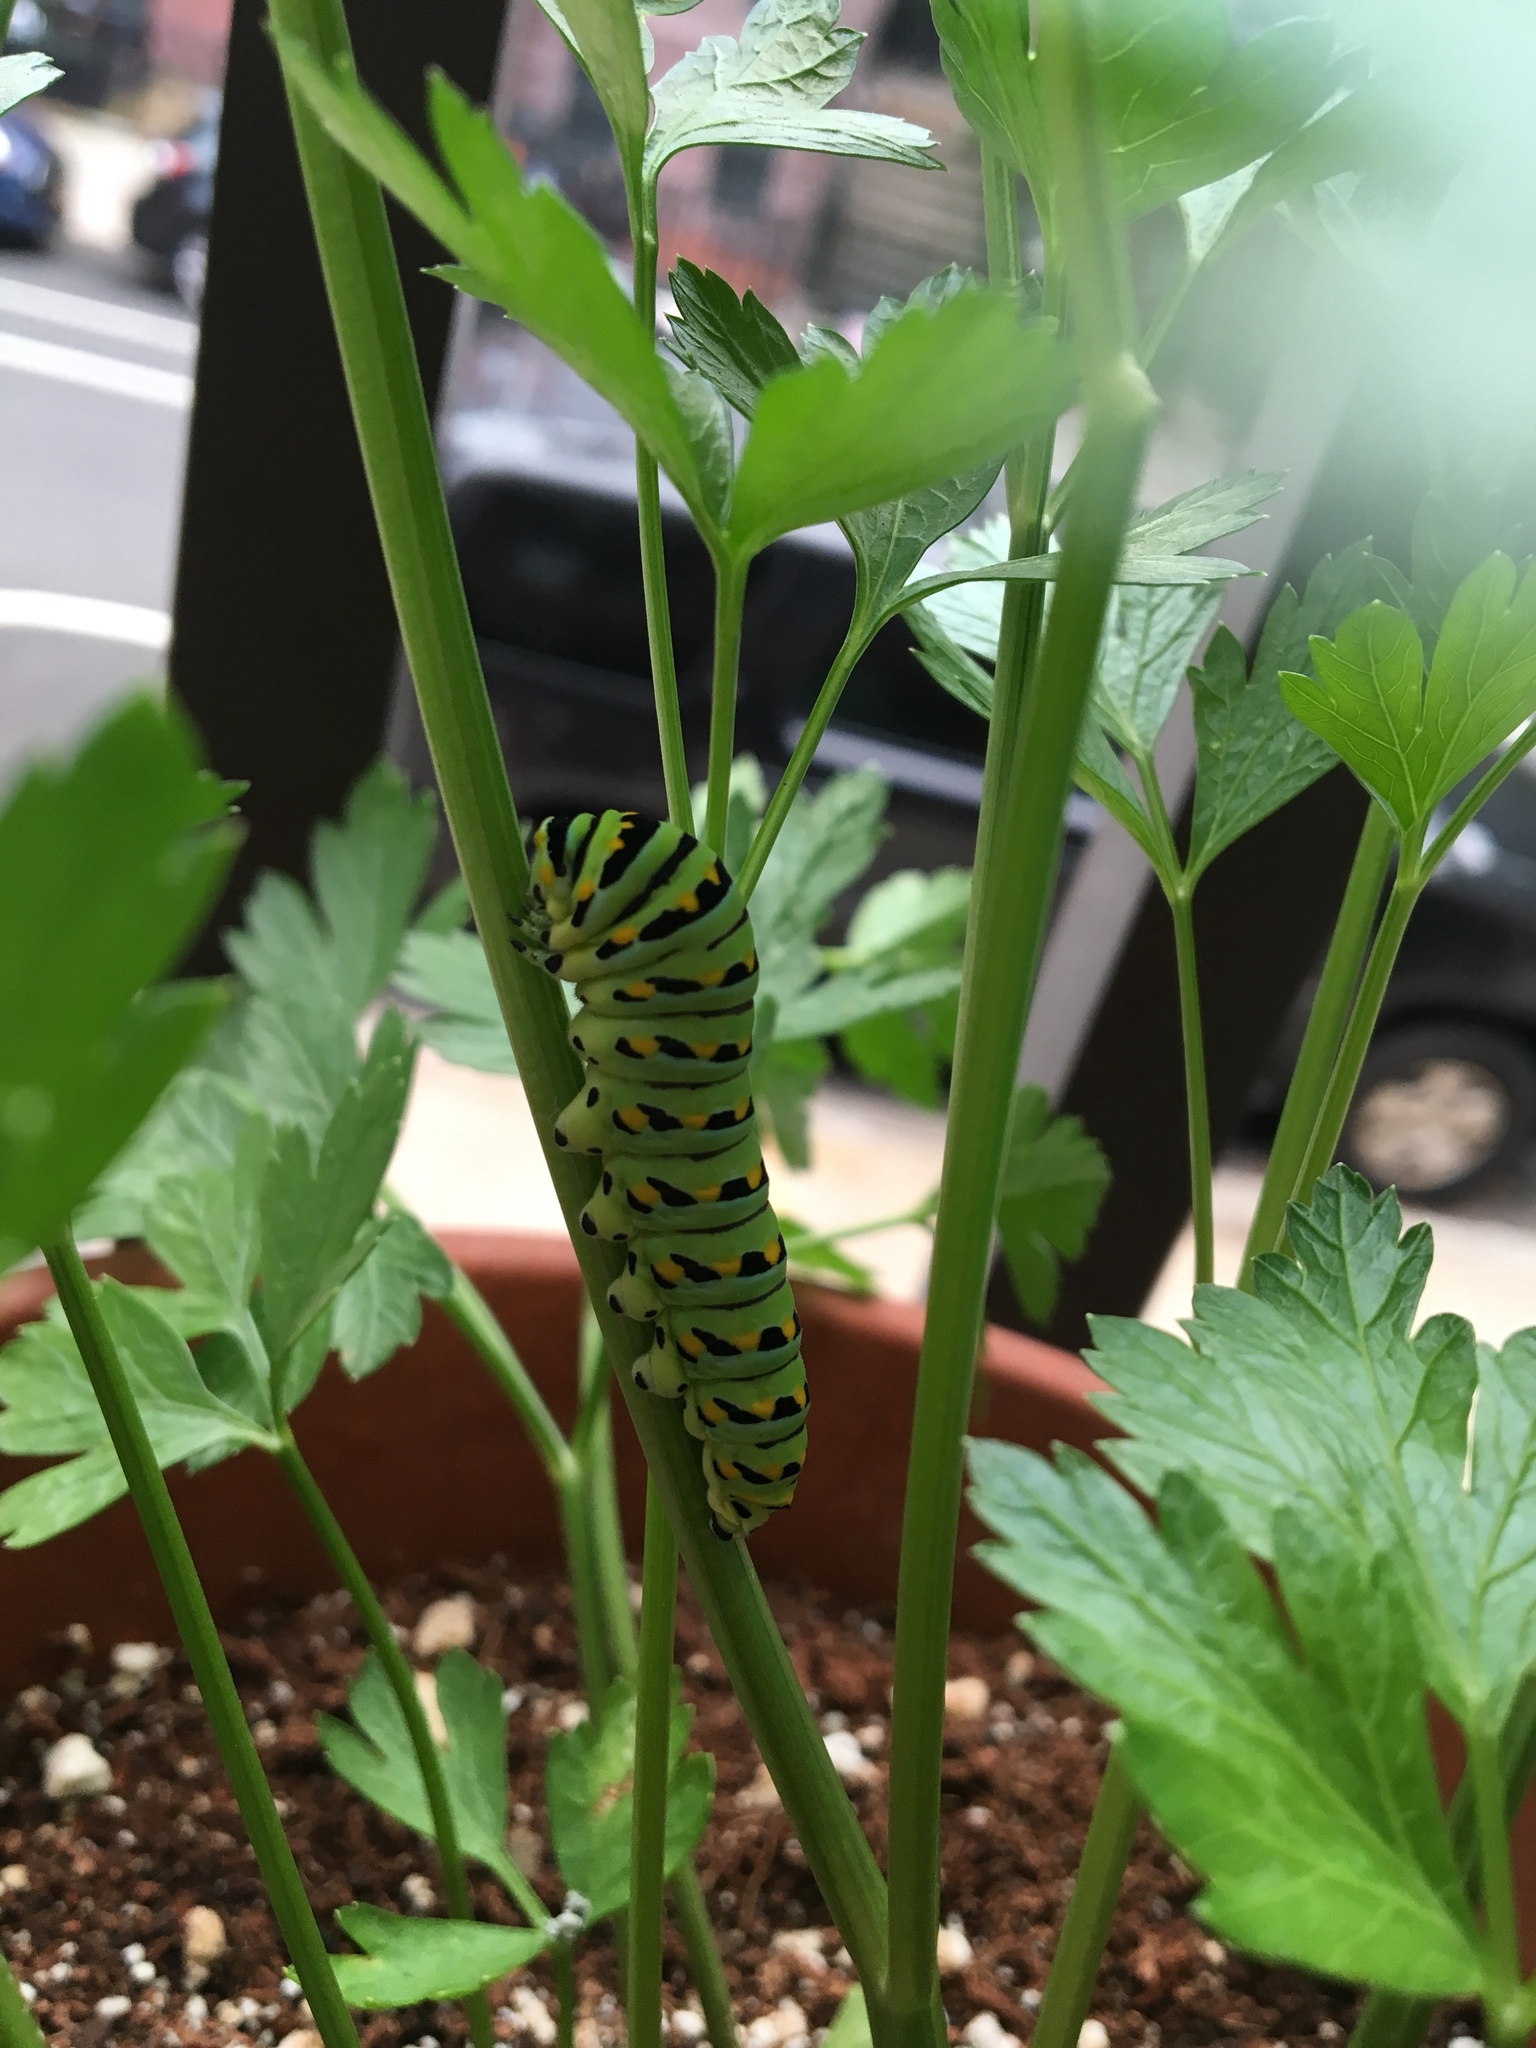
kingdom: Animalia
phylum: Arthropoda
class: Insecta
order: Lepidoptera
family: Papilionidae
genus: Papilio
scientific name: Papilio polyxenes
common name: Black swallowtail
